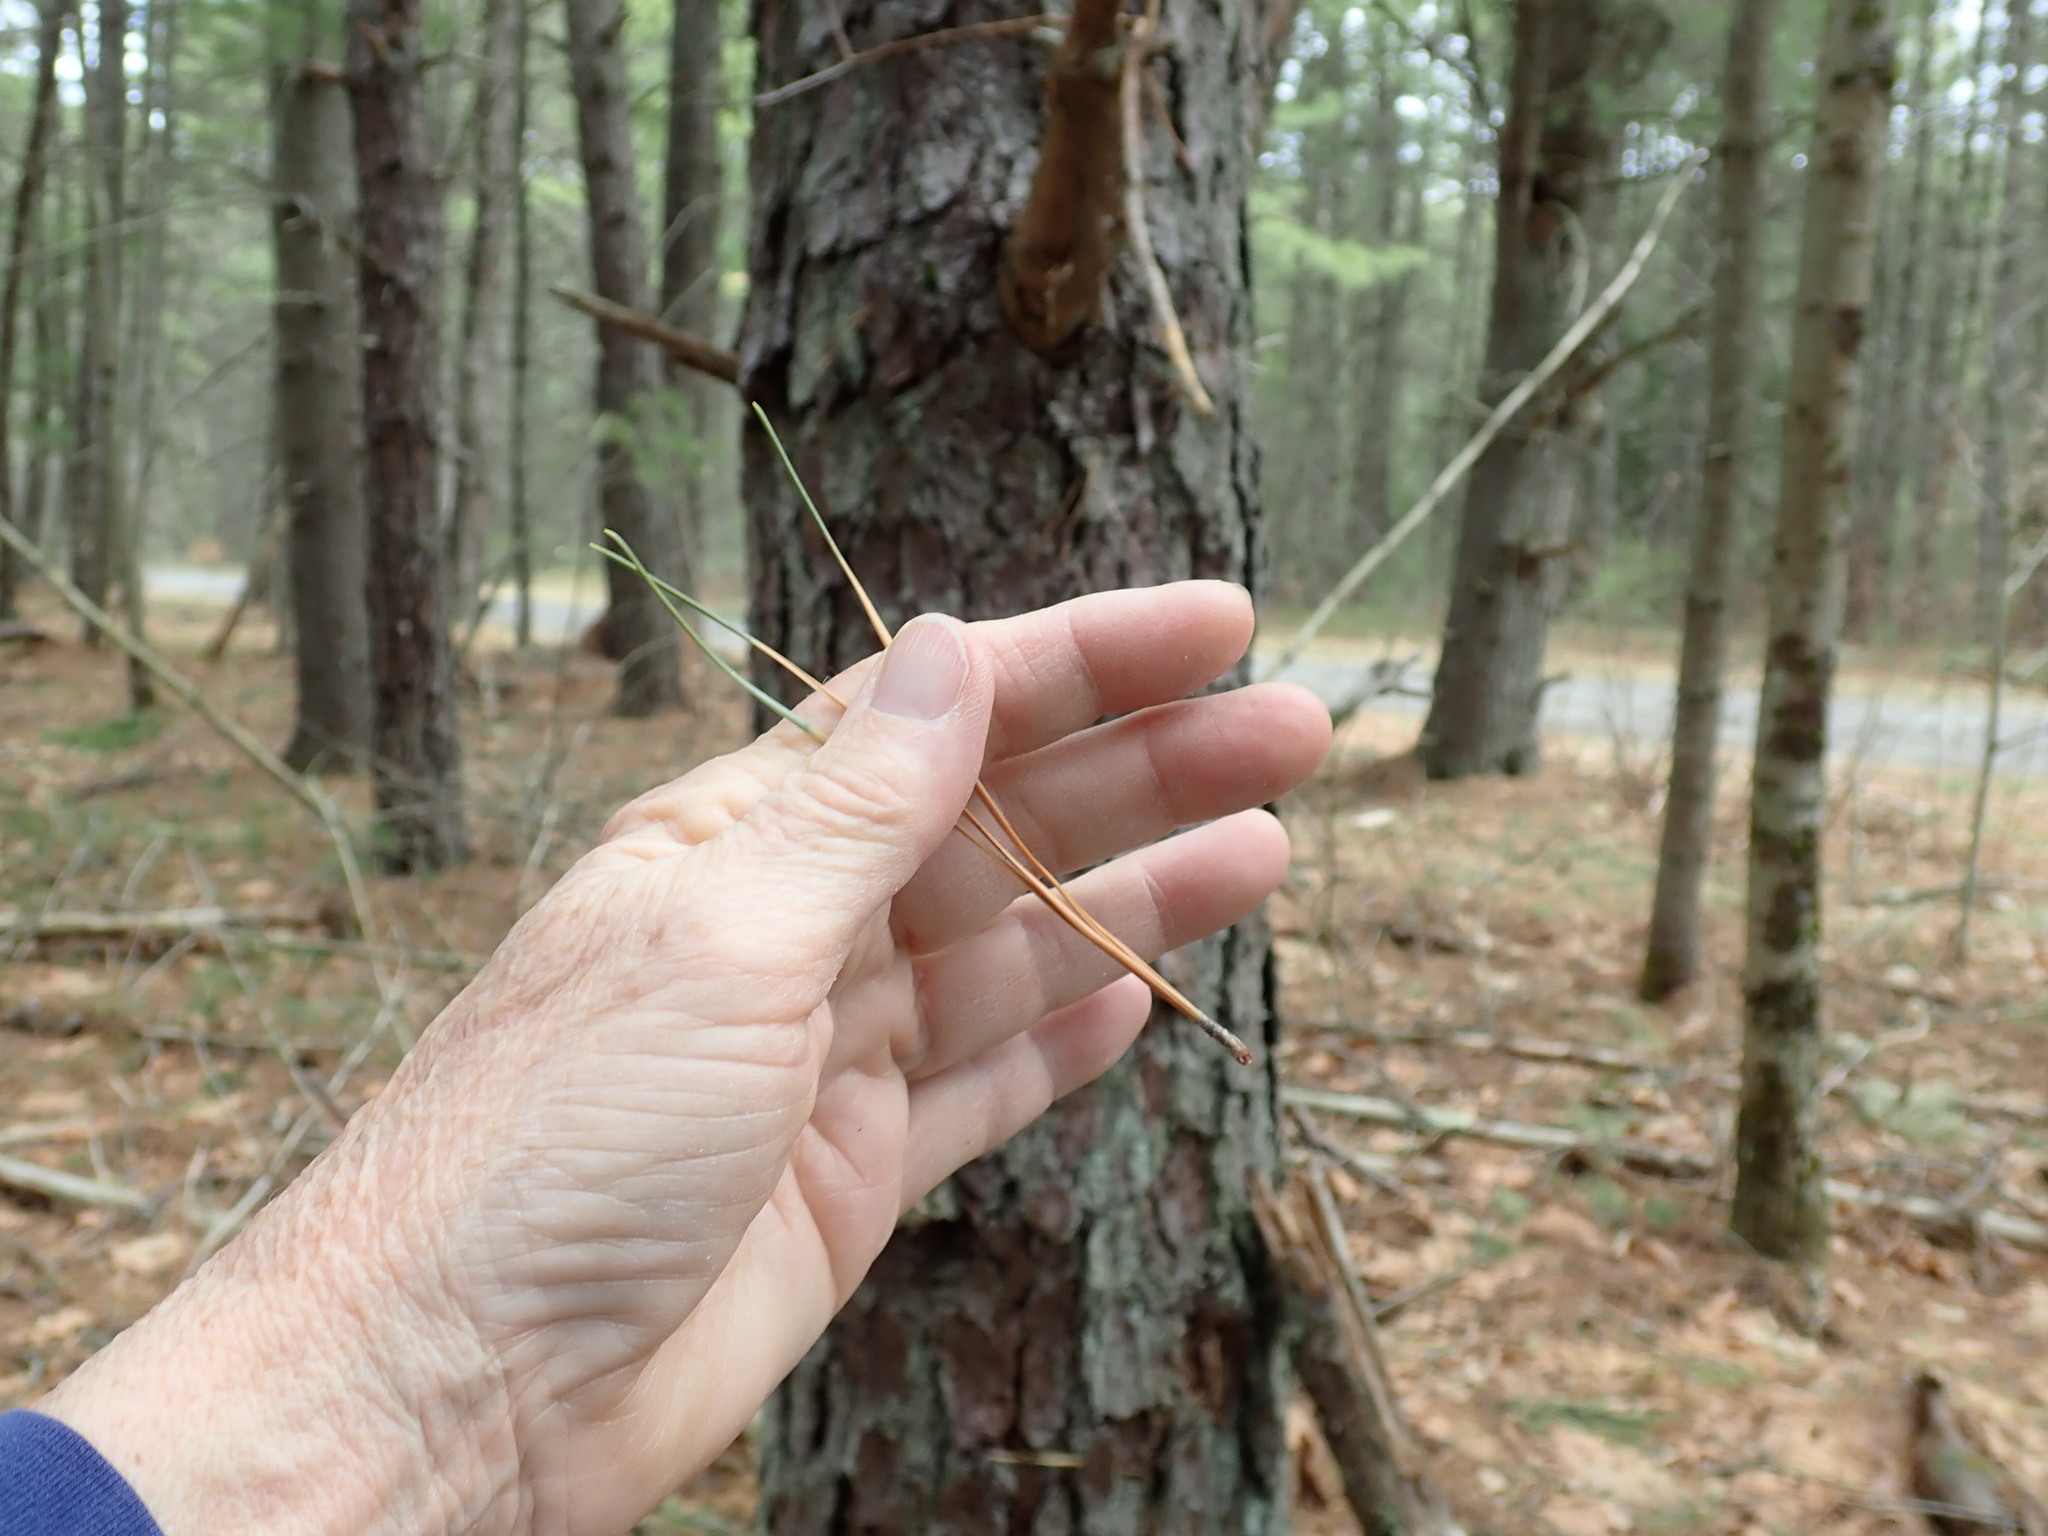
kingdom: Plantae
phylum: Tracheophyta
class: Pinopsida
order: Pinales
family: Pinaceae
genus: Pinus
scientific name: Pinus rigida
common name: Pitch pine
